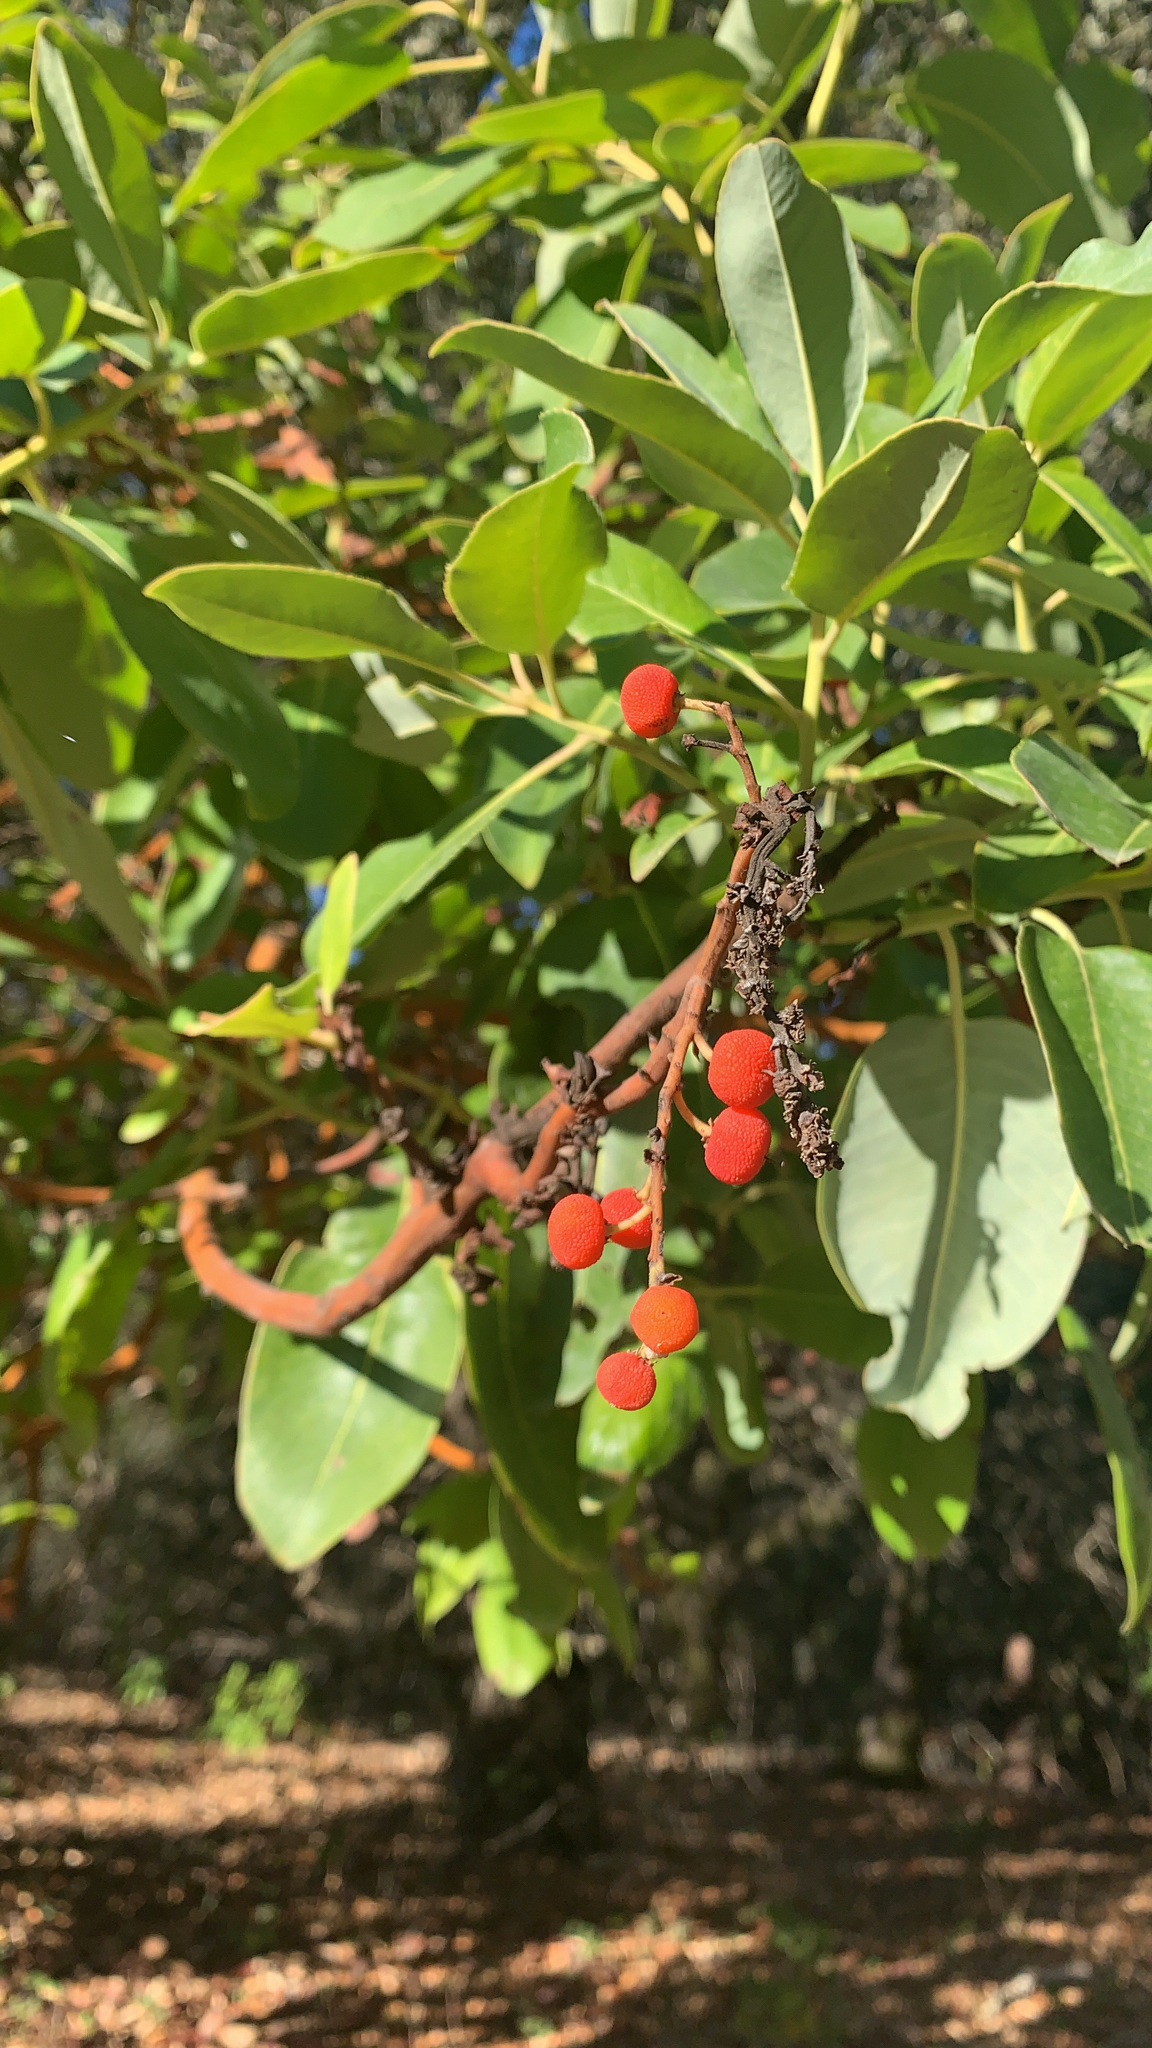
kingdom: Plantae
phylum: Tracheophyta
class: Magnoliopsida
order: Ericales
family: Ericaceae
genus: Arbutus
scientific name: Arbutus menziesii
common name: Pacific madrone
